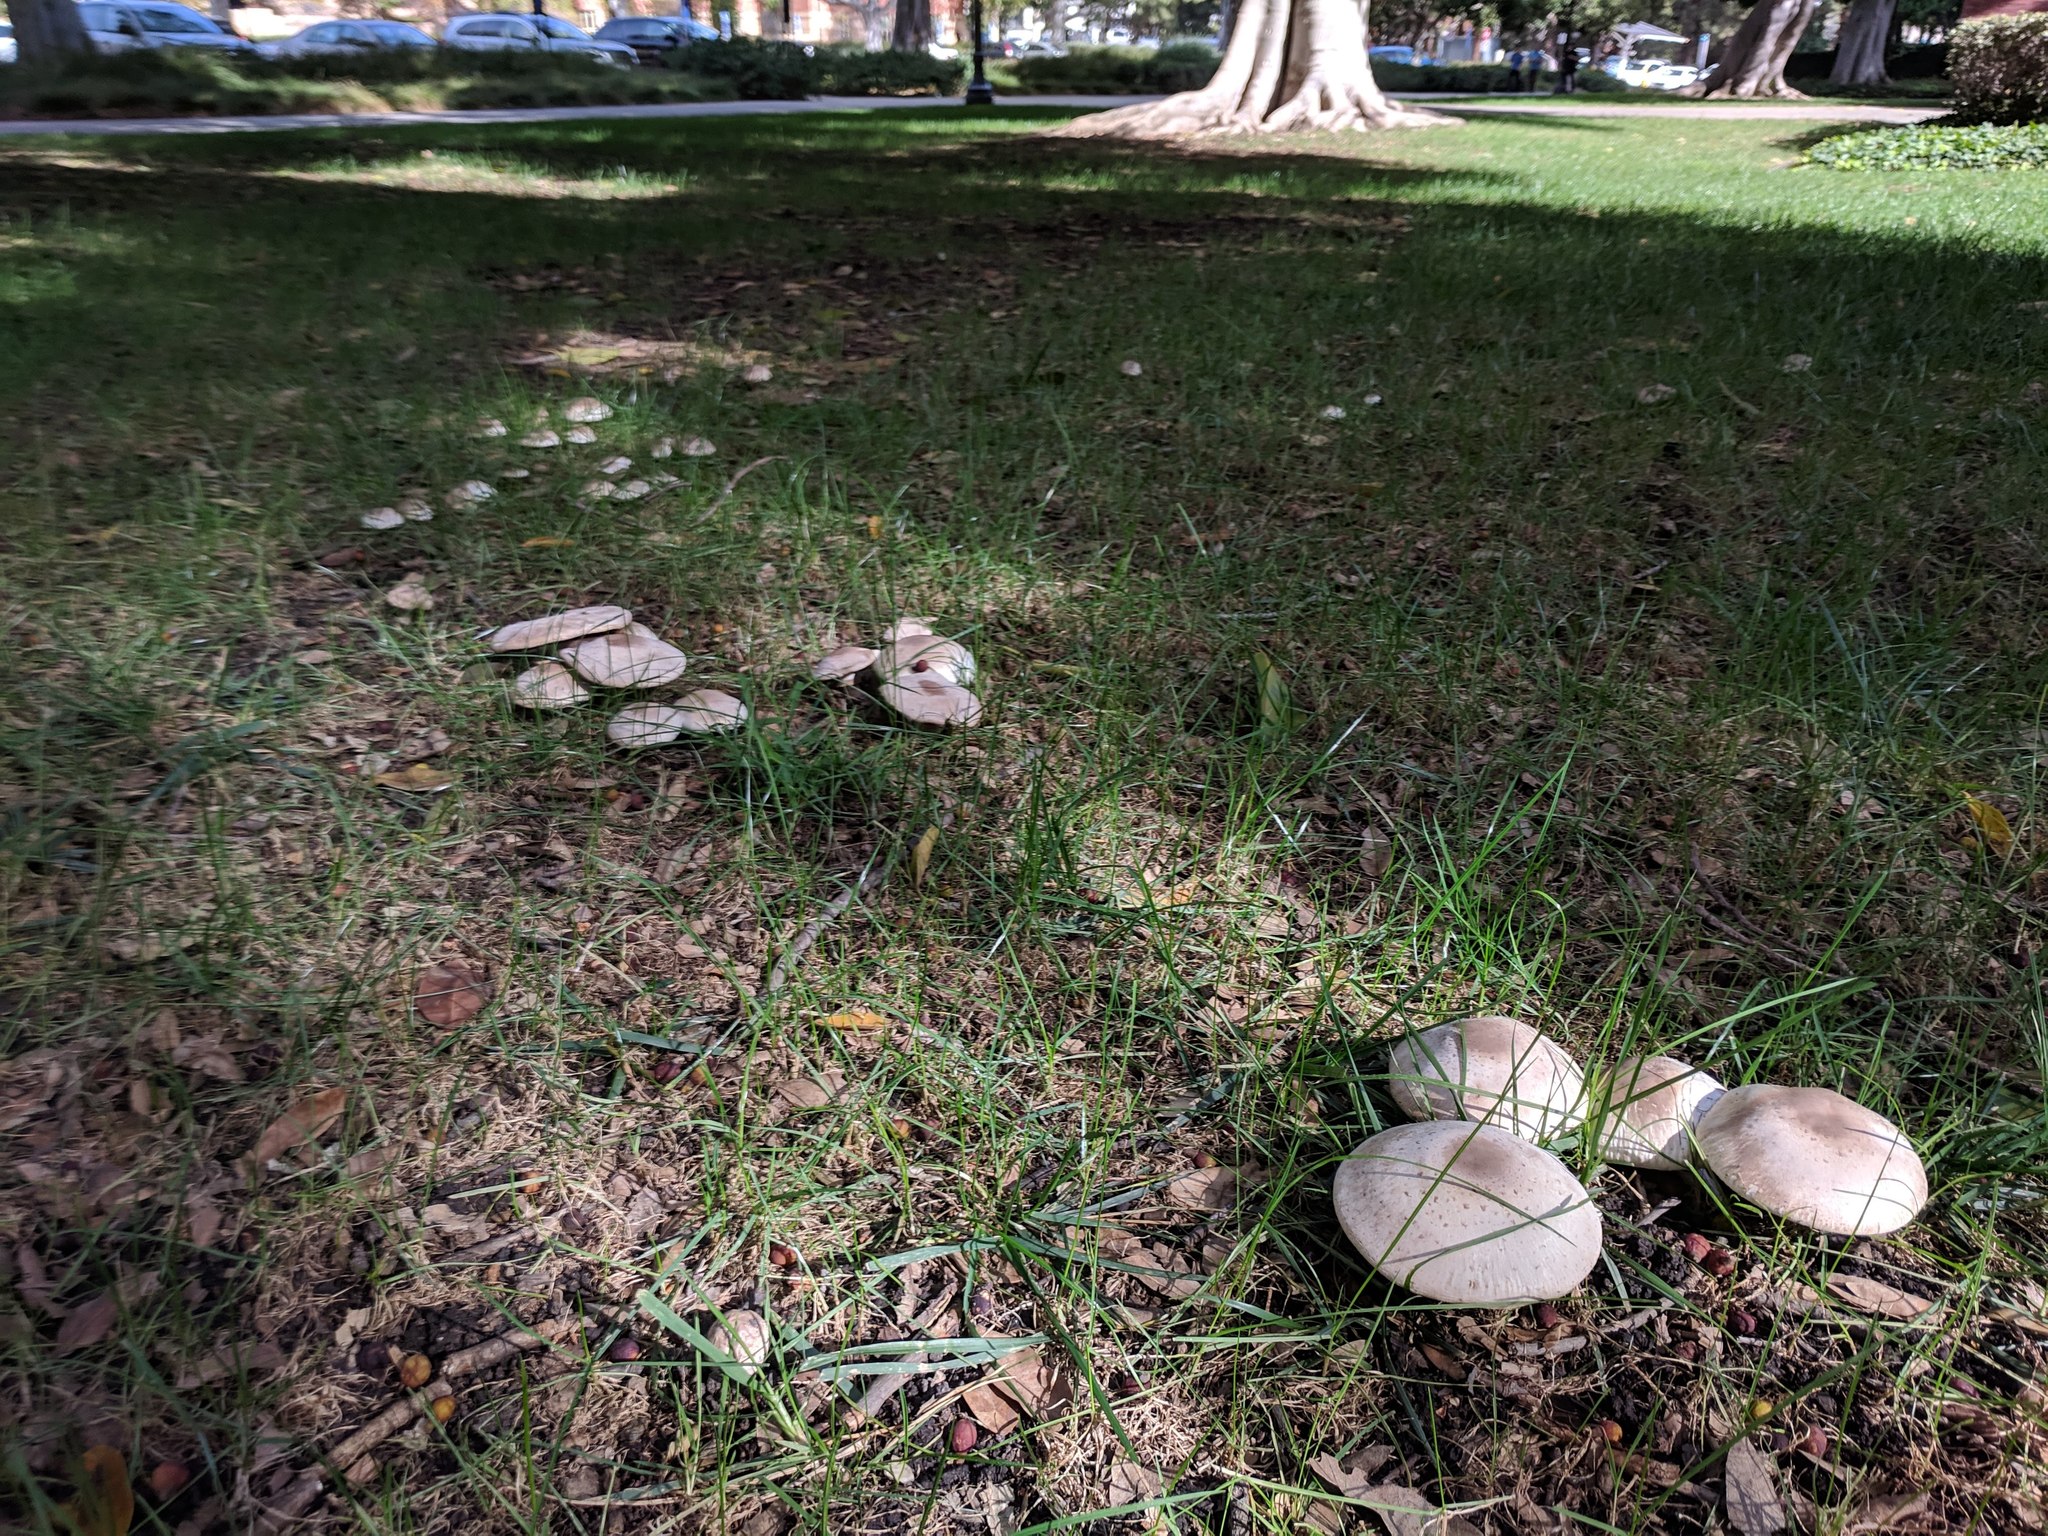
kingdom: Fungi
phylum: Basidiomycota
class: Agaricomycetes
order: Agaricales
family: Agaricaceae
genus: Agaricus
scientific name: Agaricus xanthodermus
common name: Yellow stainer
